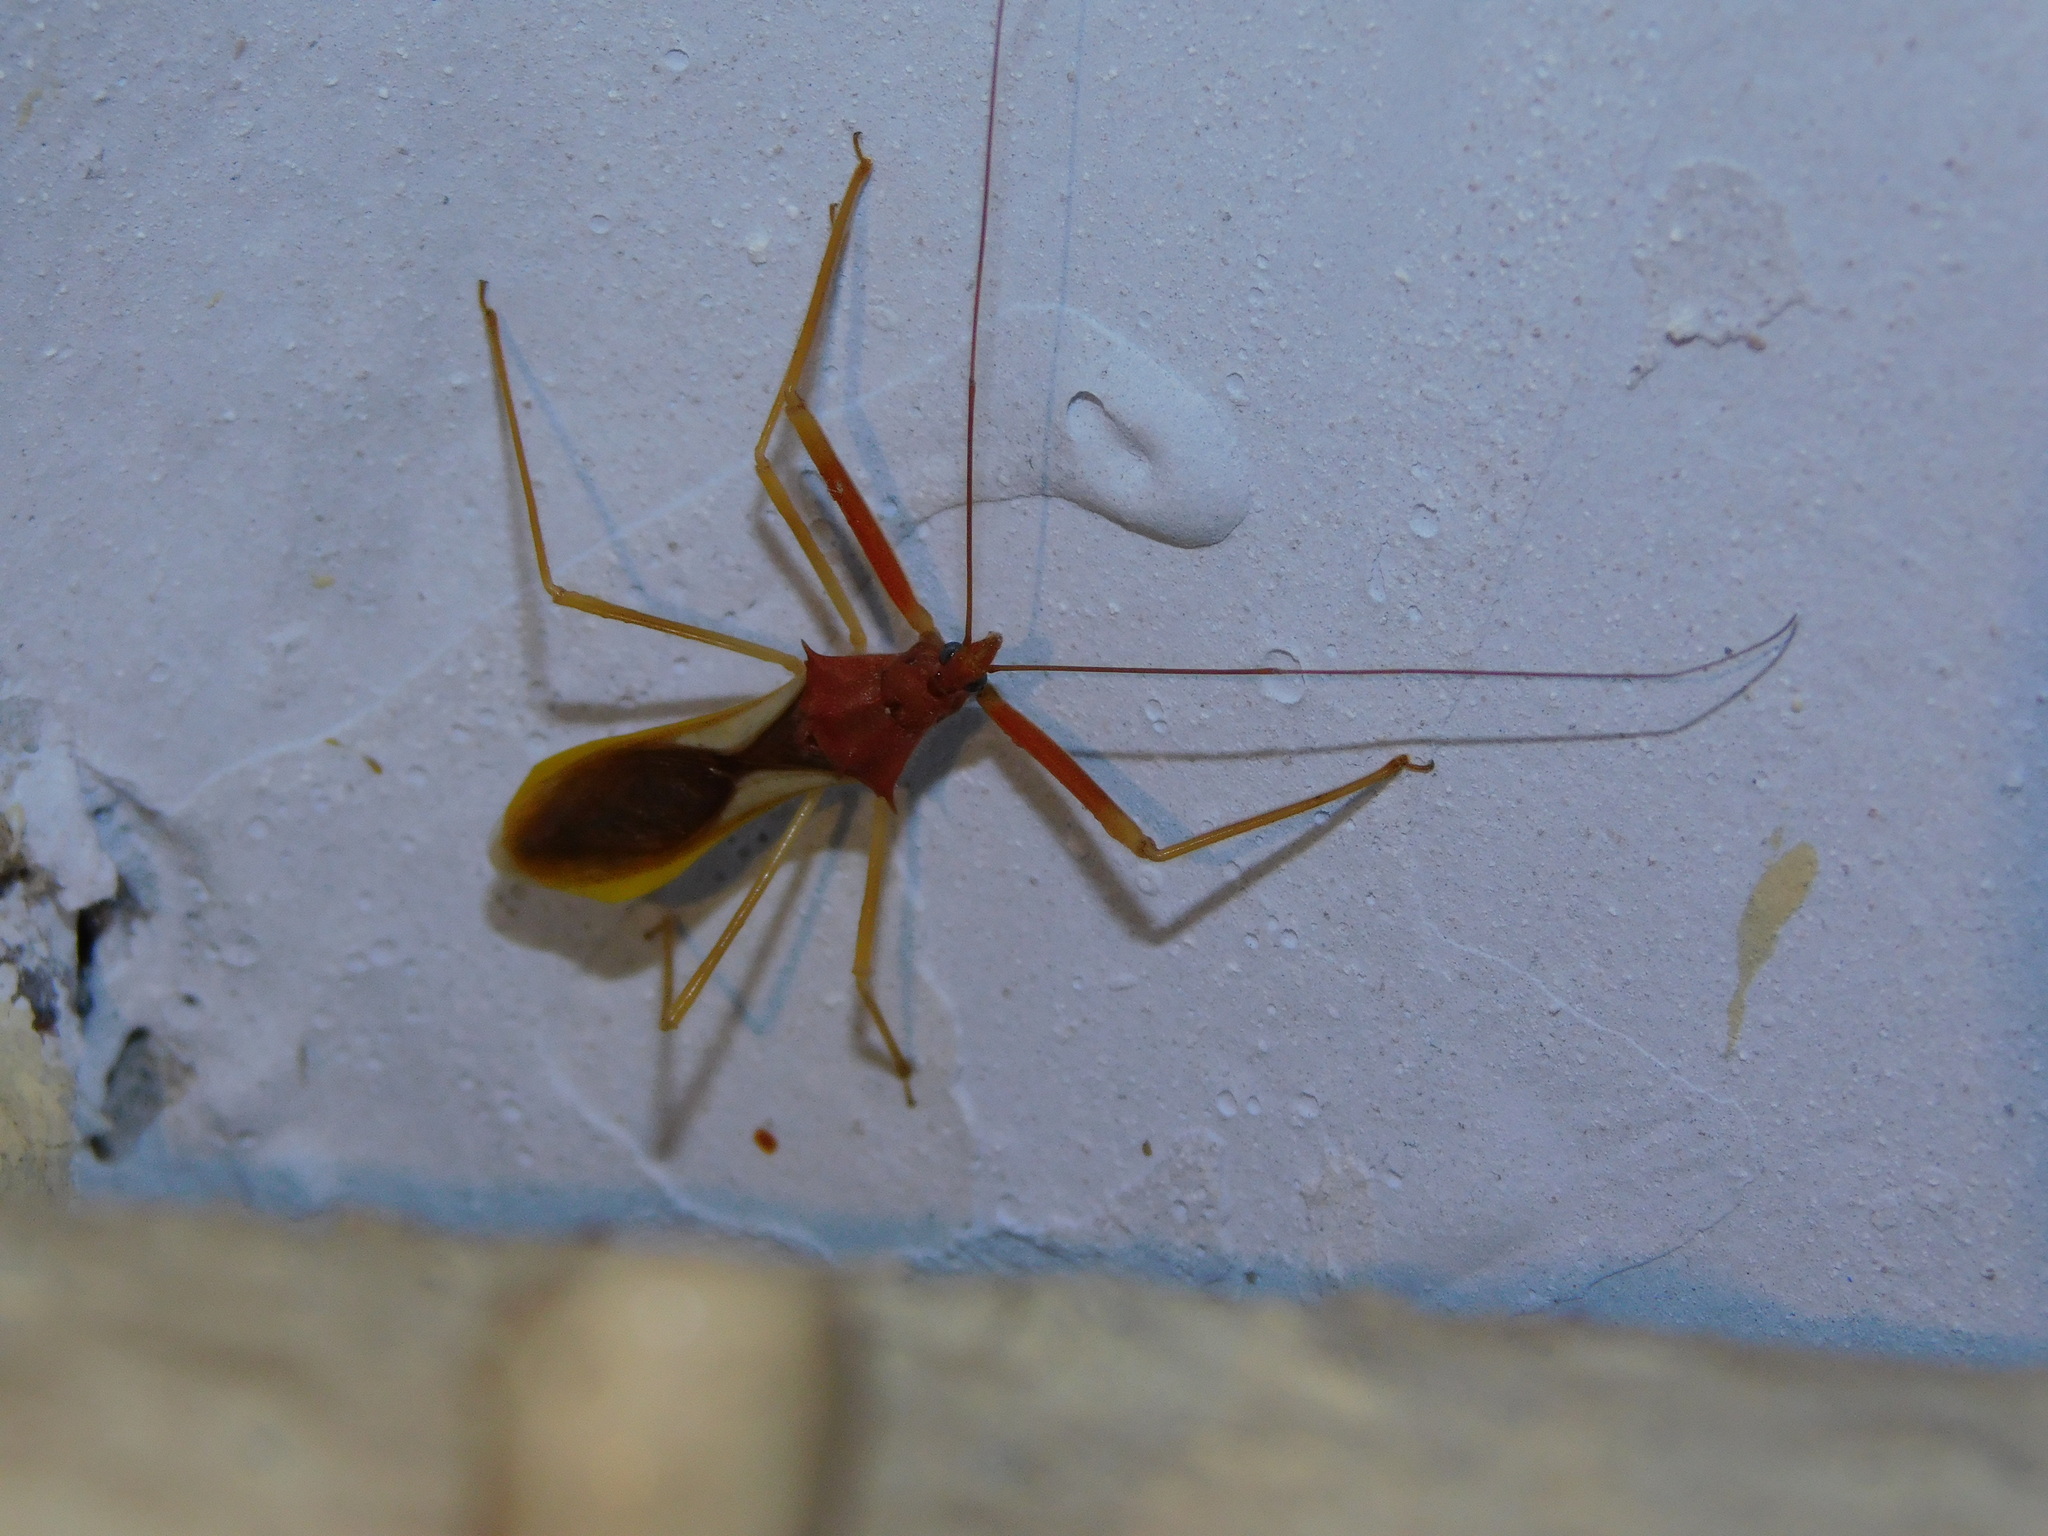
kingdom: Animalia
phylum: Arthropoda
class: Insecta
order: Hemiptera
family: Reduviidae
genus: Epidaus
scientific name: Epidaus bicolor
